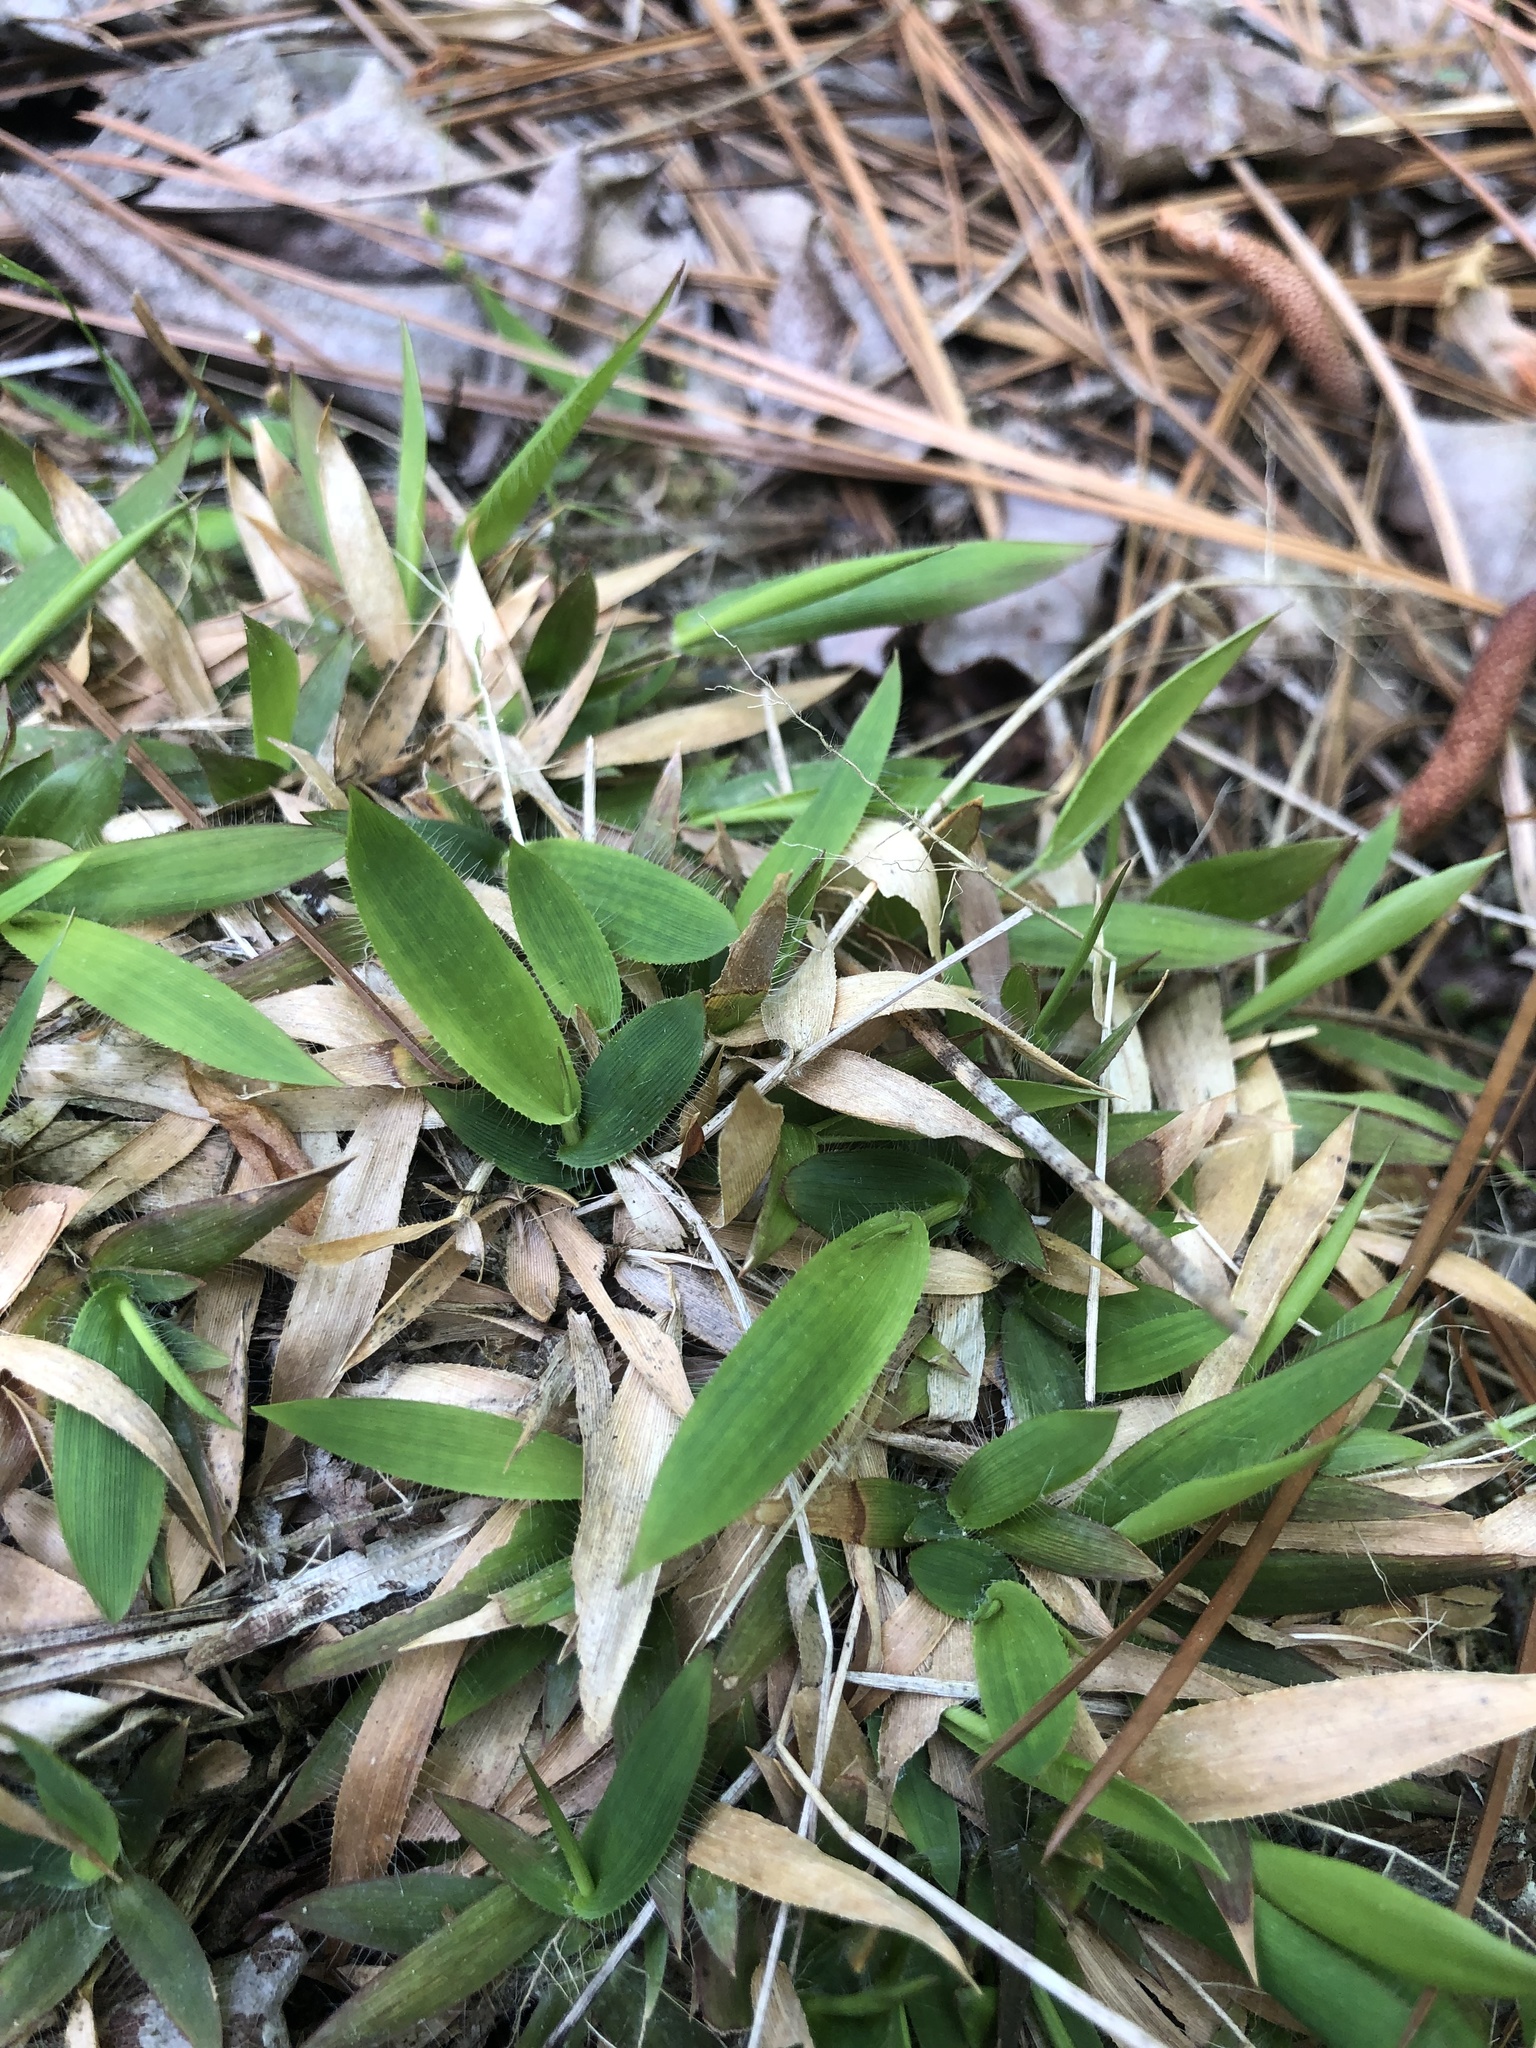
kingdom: Plantae
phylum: Tracheophyta
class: Liliopsida
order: Poales
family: Poaceae
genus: Dichanthelium
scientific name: Dichanthelium strigosum
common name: Cushion-tuft panic grass
